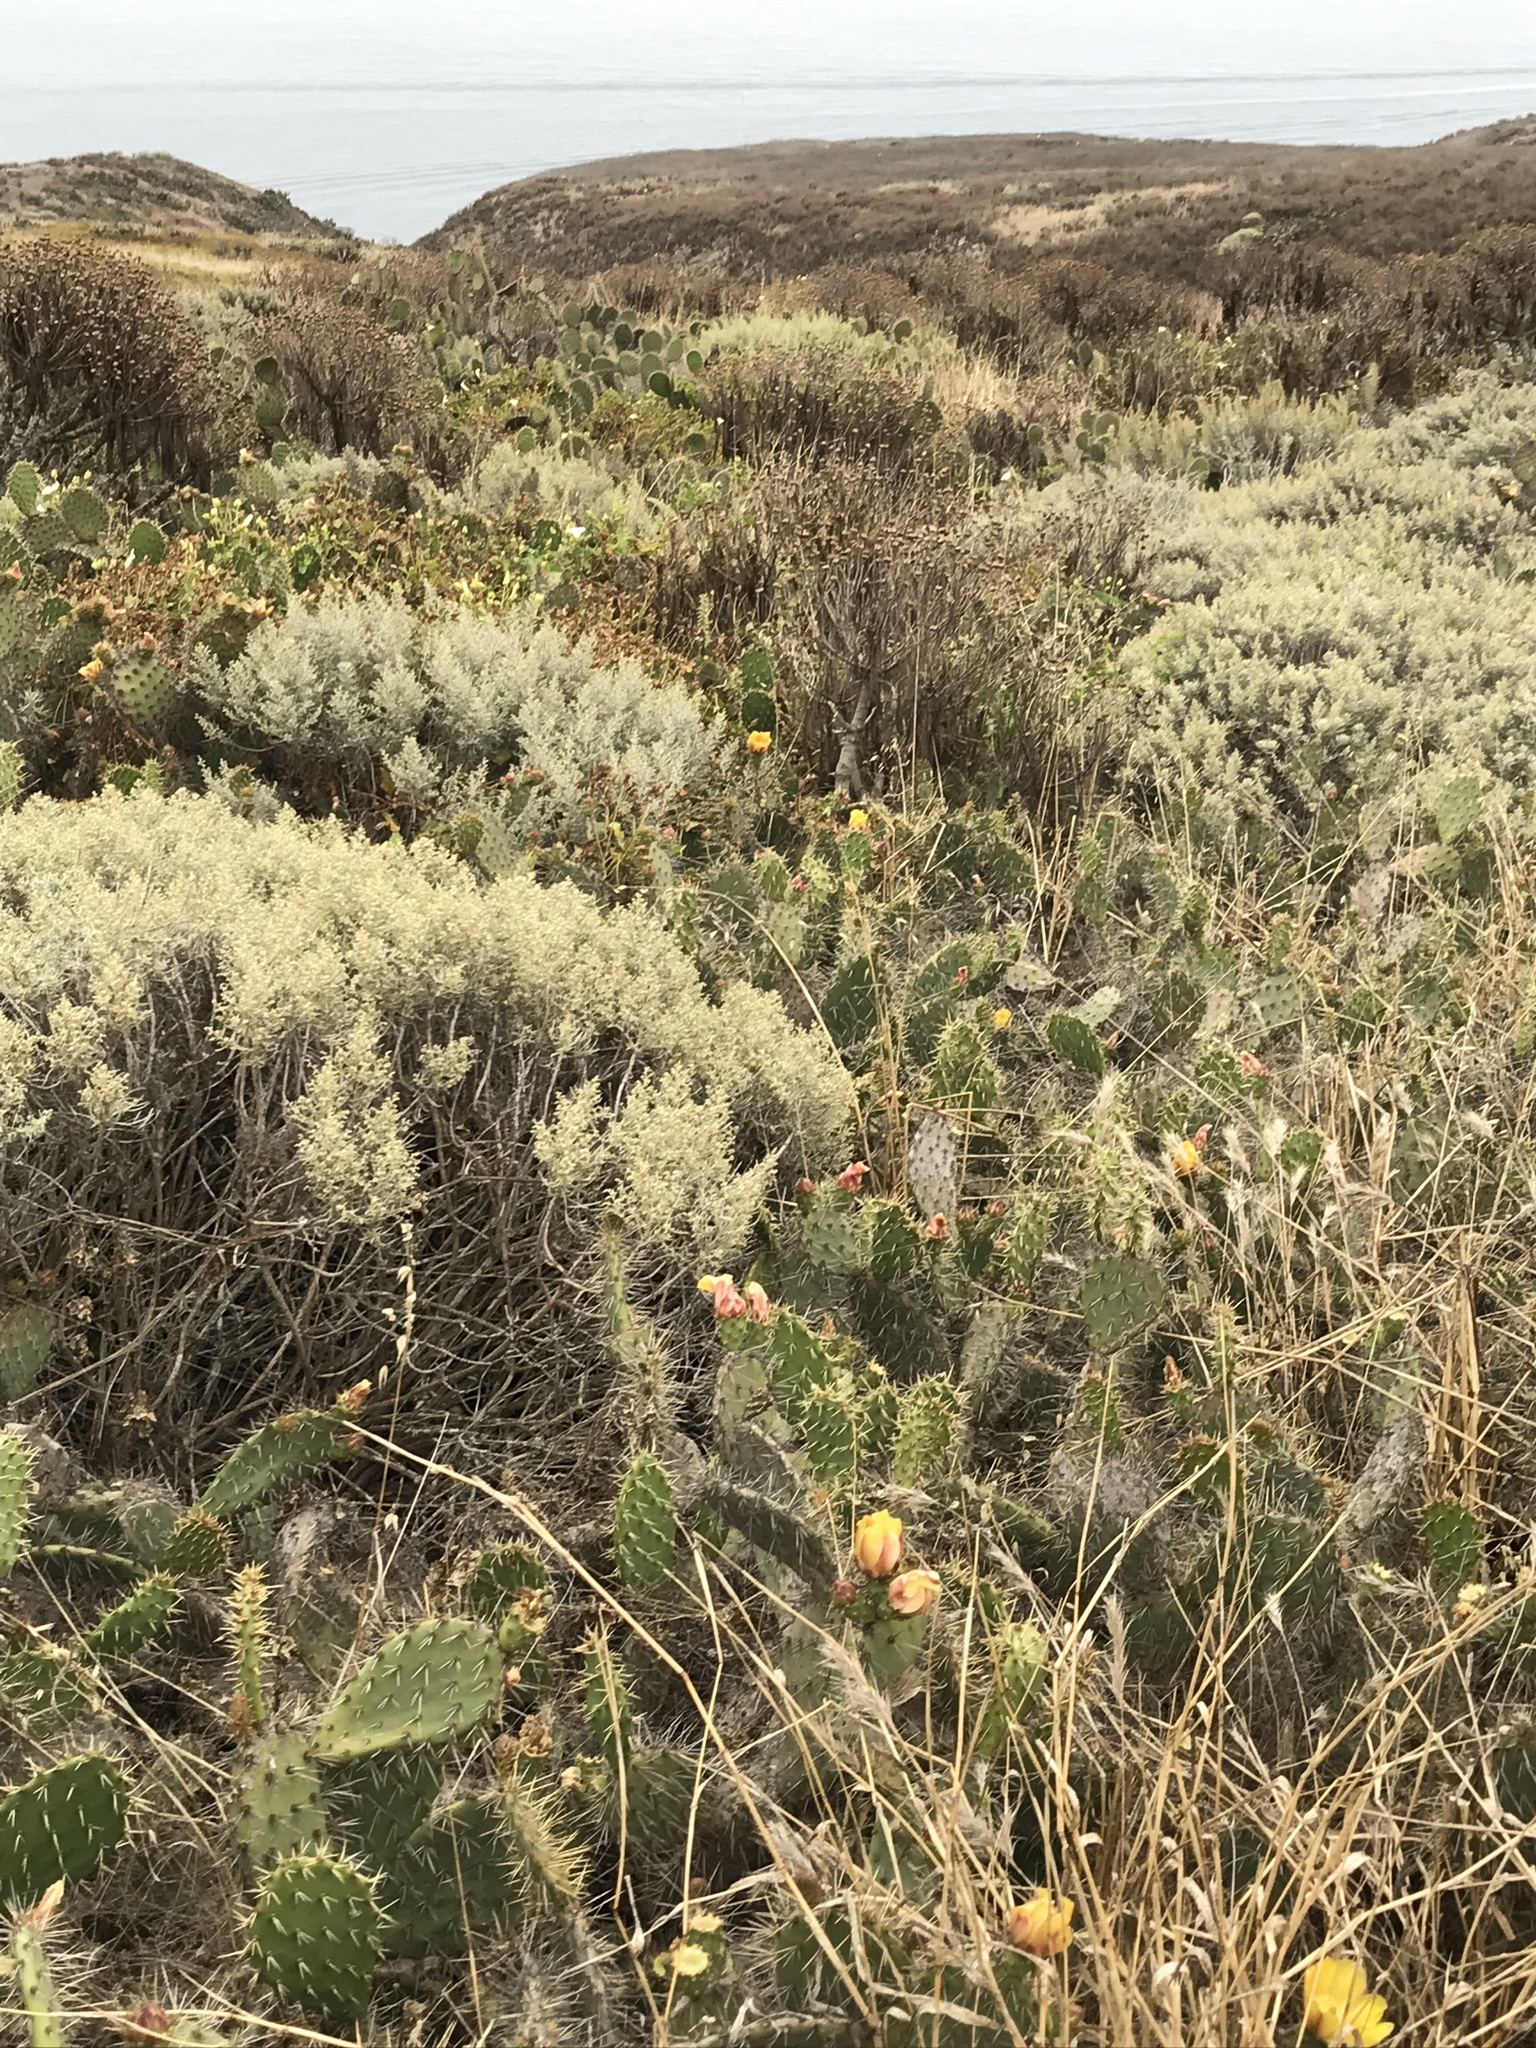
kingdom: Plantae
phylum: Tracheophyta
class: Magnoliopsida
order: Caryophyllales
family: Cactaceae
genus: Opuntia
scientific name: Opuntia littoralis
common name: Coastal prickly-pear
